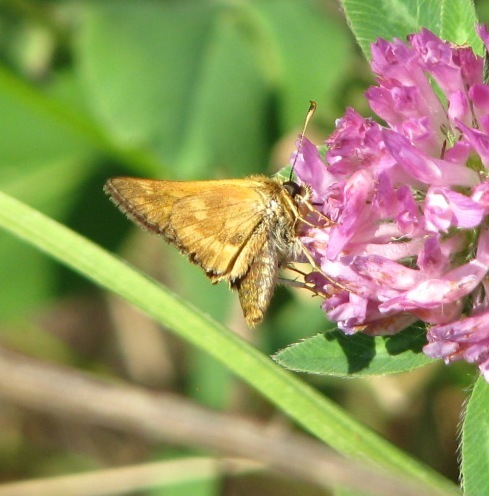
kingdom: Animalia
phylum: Arthropoda
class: Insecta
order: Lepidoptera
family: Hesperiidae
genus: Ochlodes
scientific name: Ochlodes sylvanoides
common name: Woodland skipper
